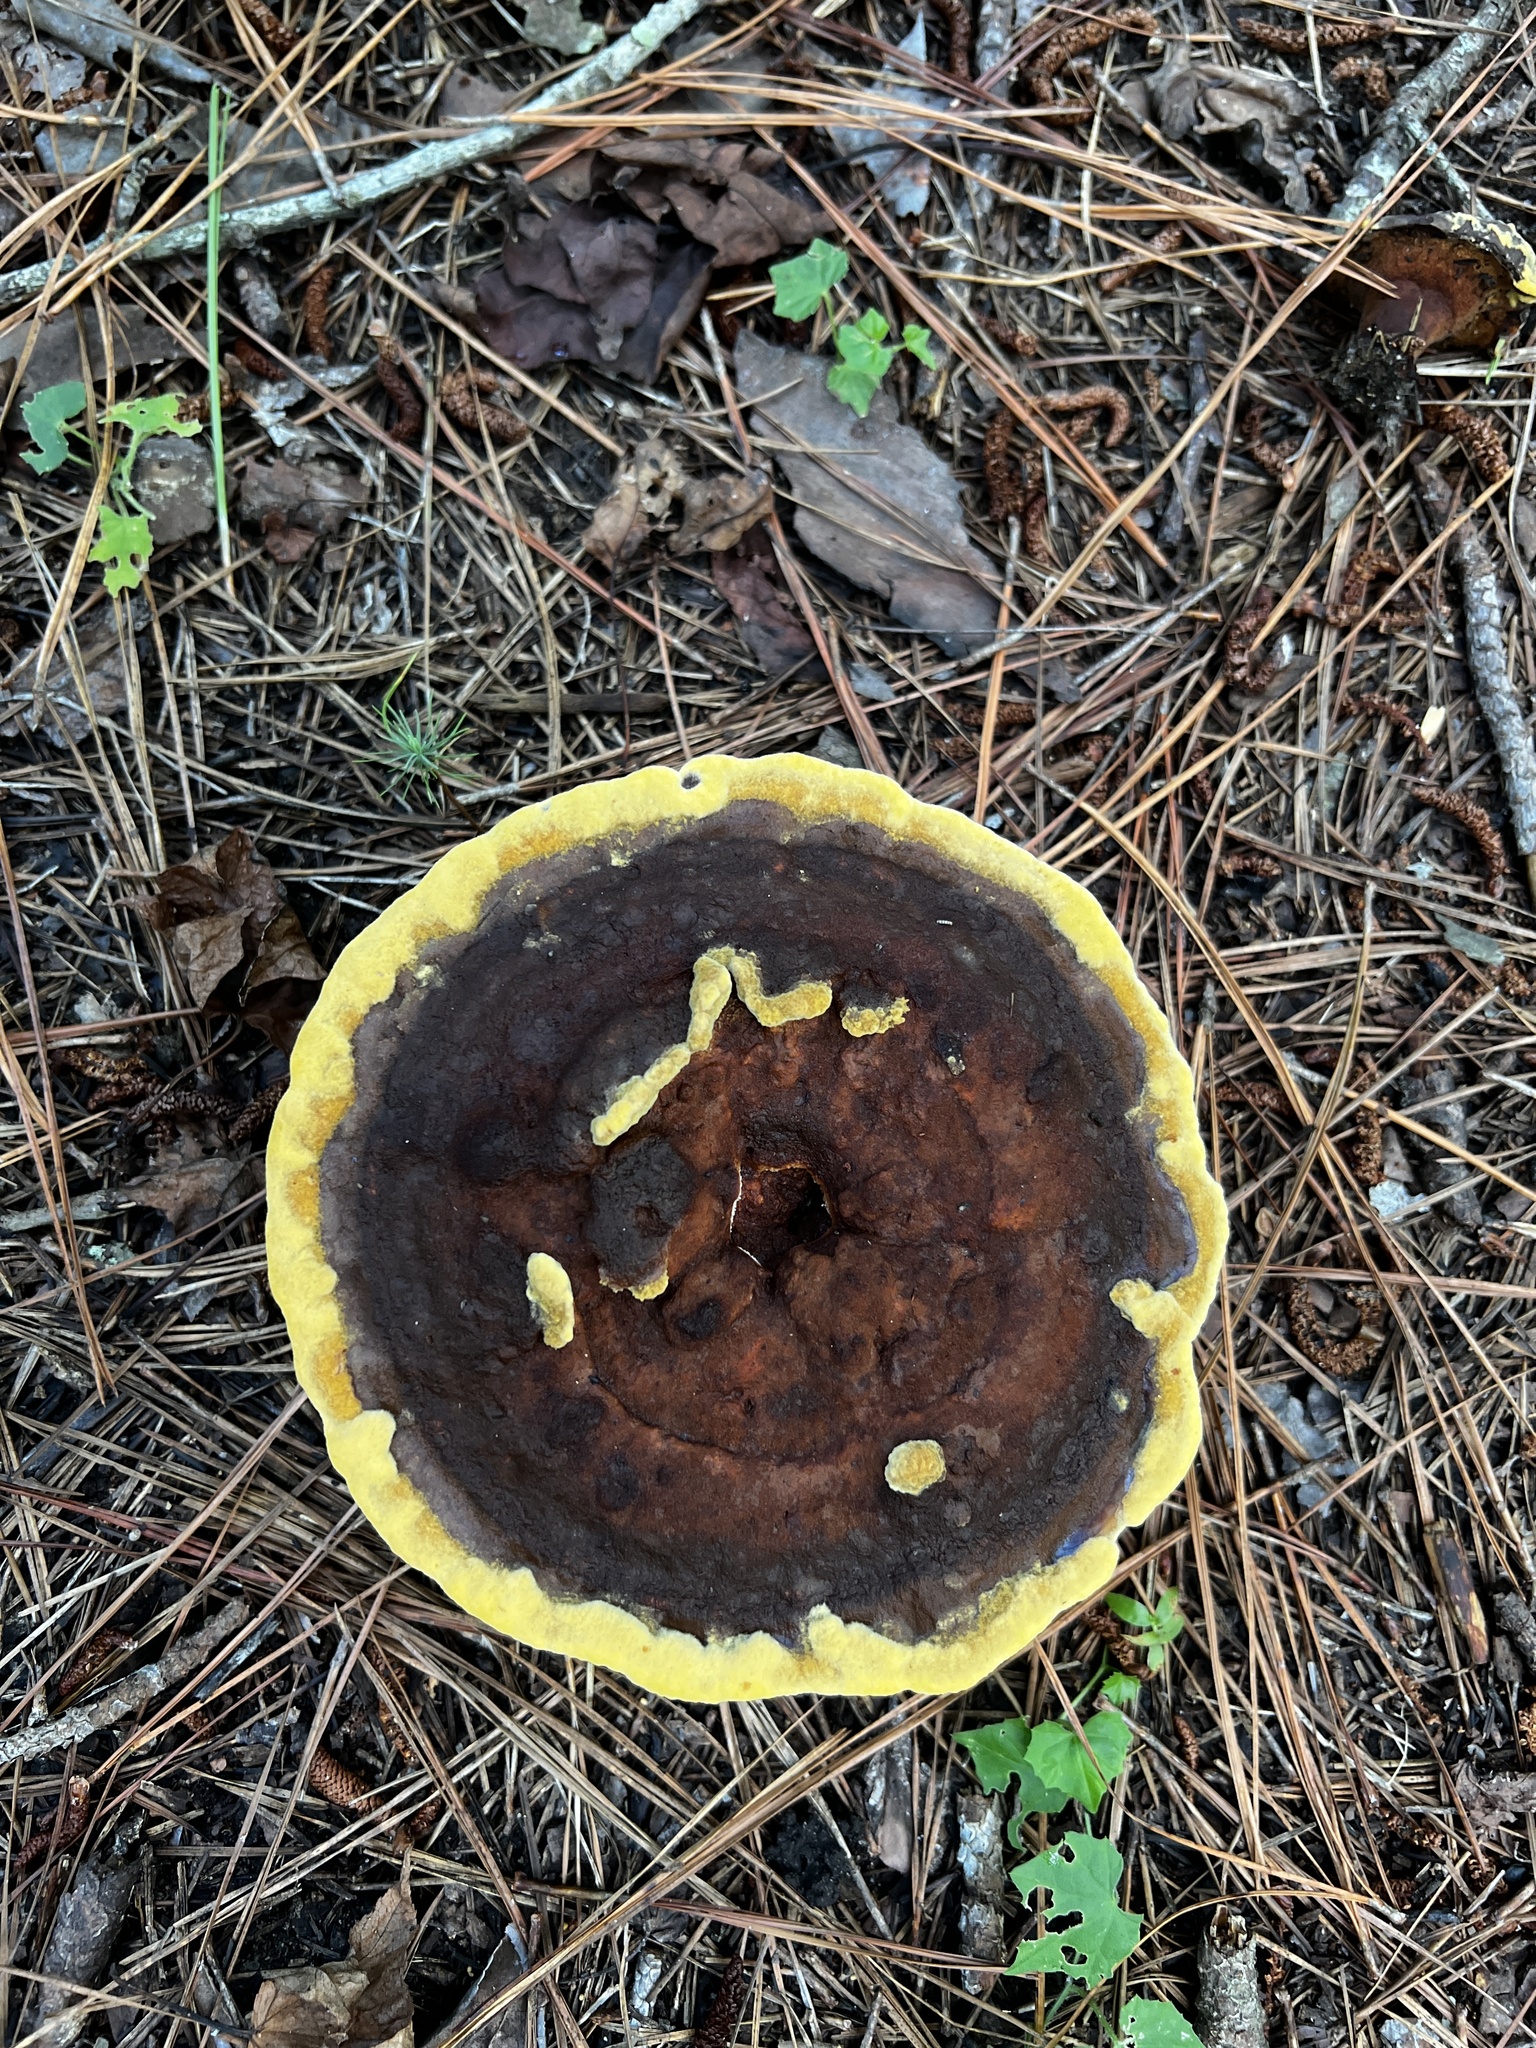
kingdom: Fungi
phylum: Basidiomycota
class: Agaricomycetes
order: Polyporales
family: Laetiporaceae
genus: Phaeolus
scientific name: Phaeolus schweinitzii
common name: Dyer's mazegill
